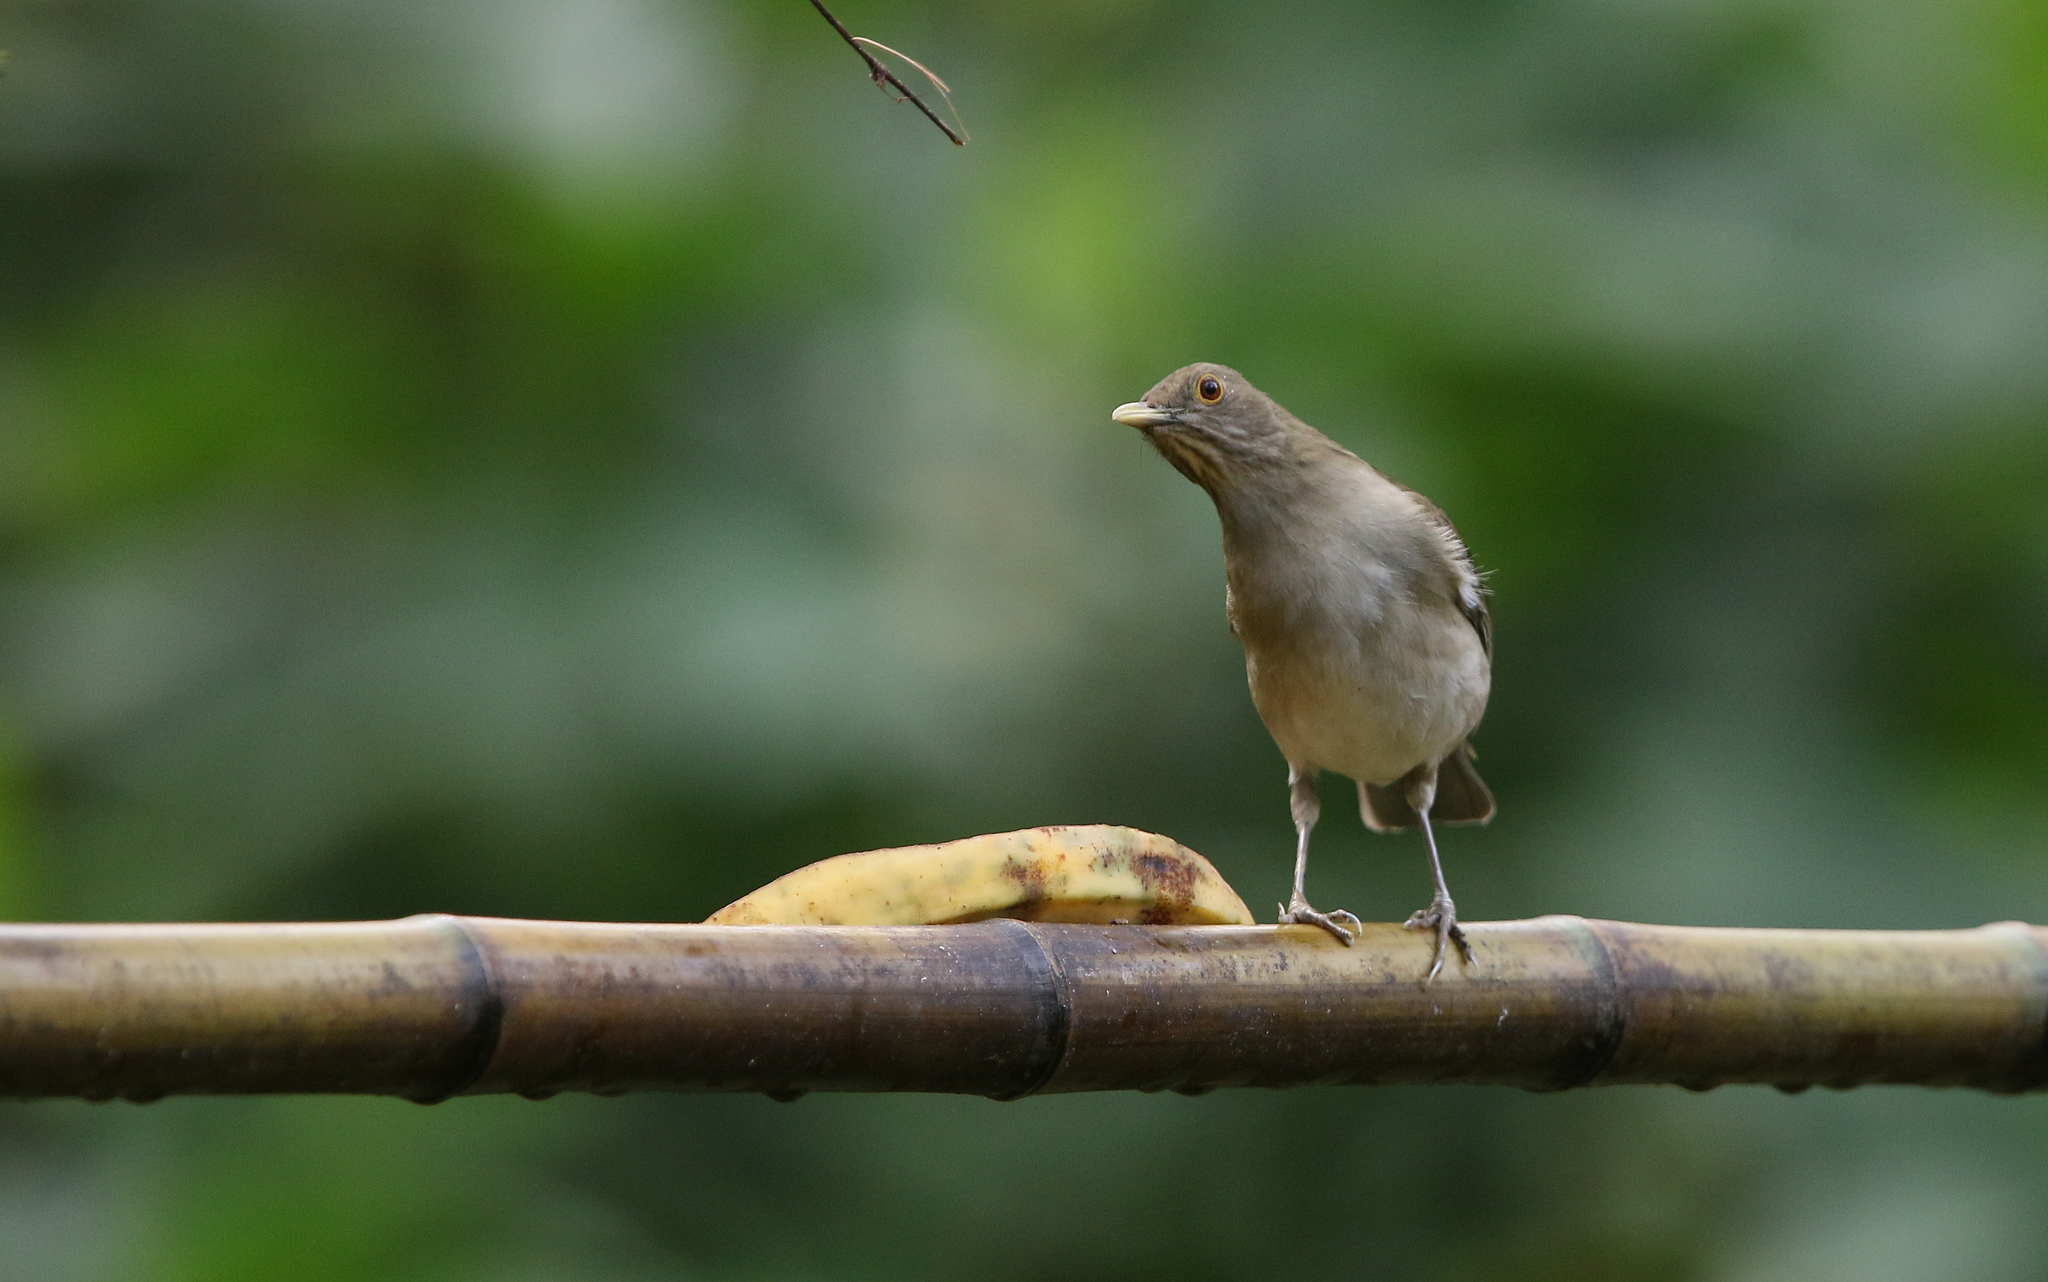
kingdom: Animalia
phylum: Chordata
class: Aves
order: Passeriformes
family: Turdidae
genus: Turdus
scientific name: Turdus maculirostris
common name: Ecuadorian thrush
